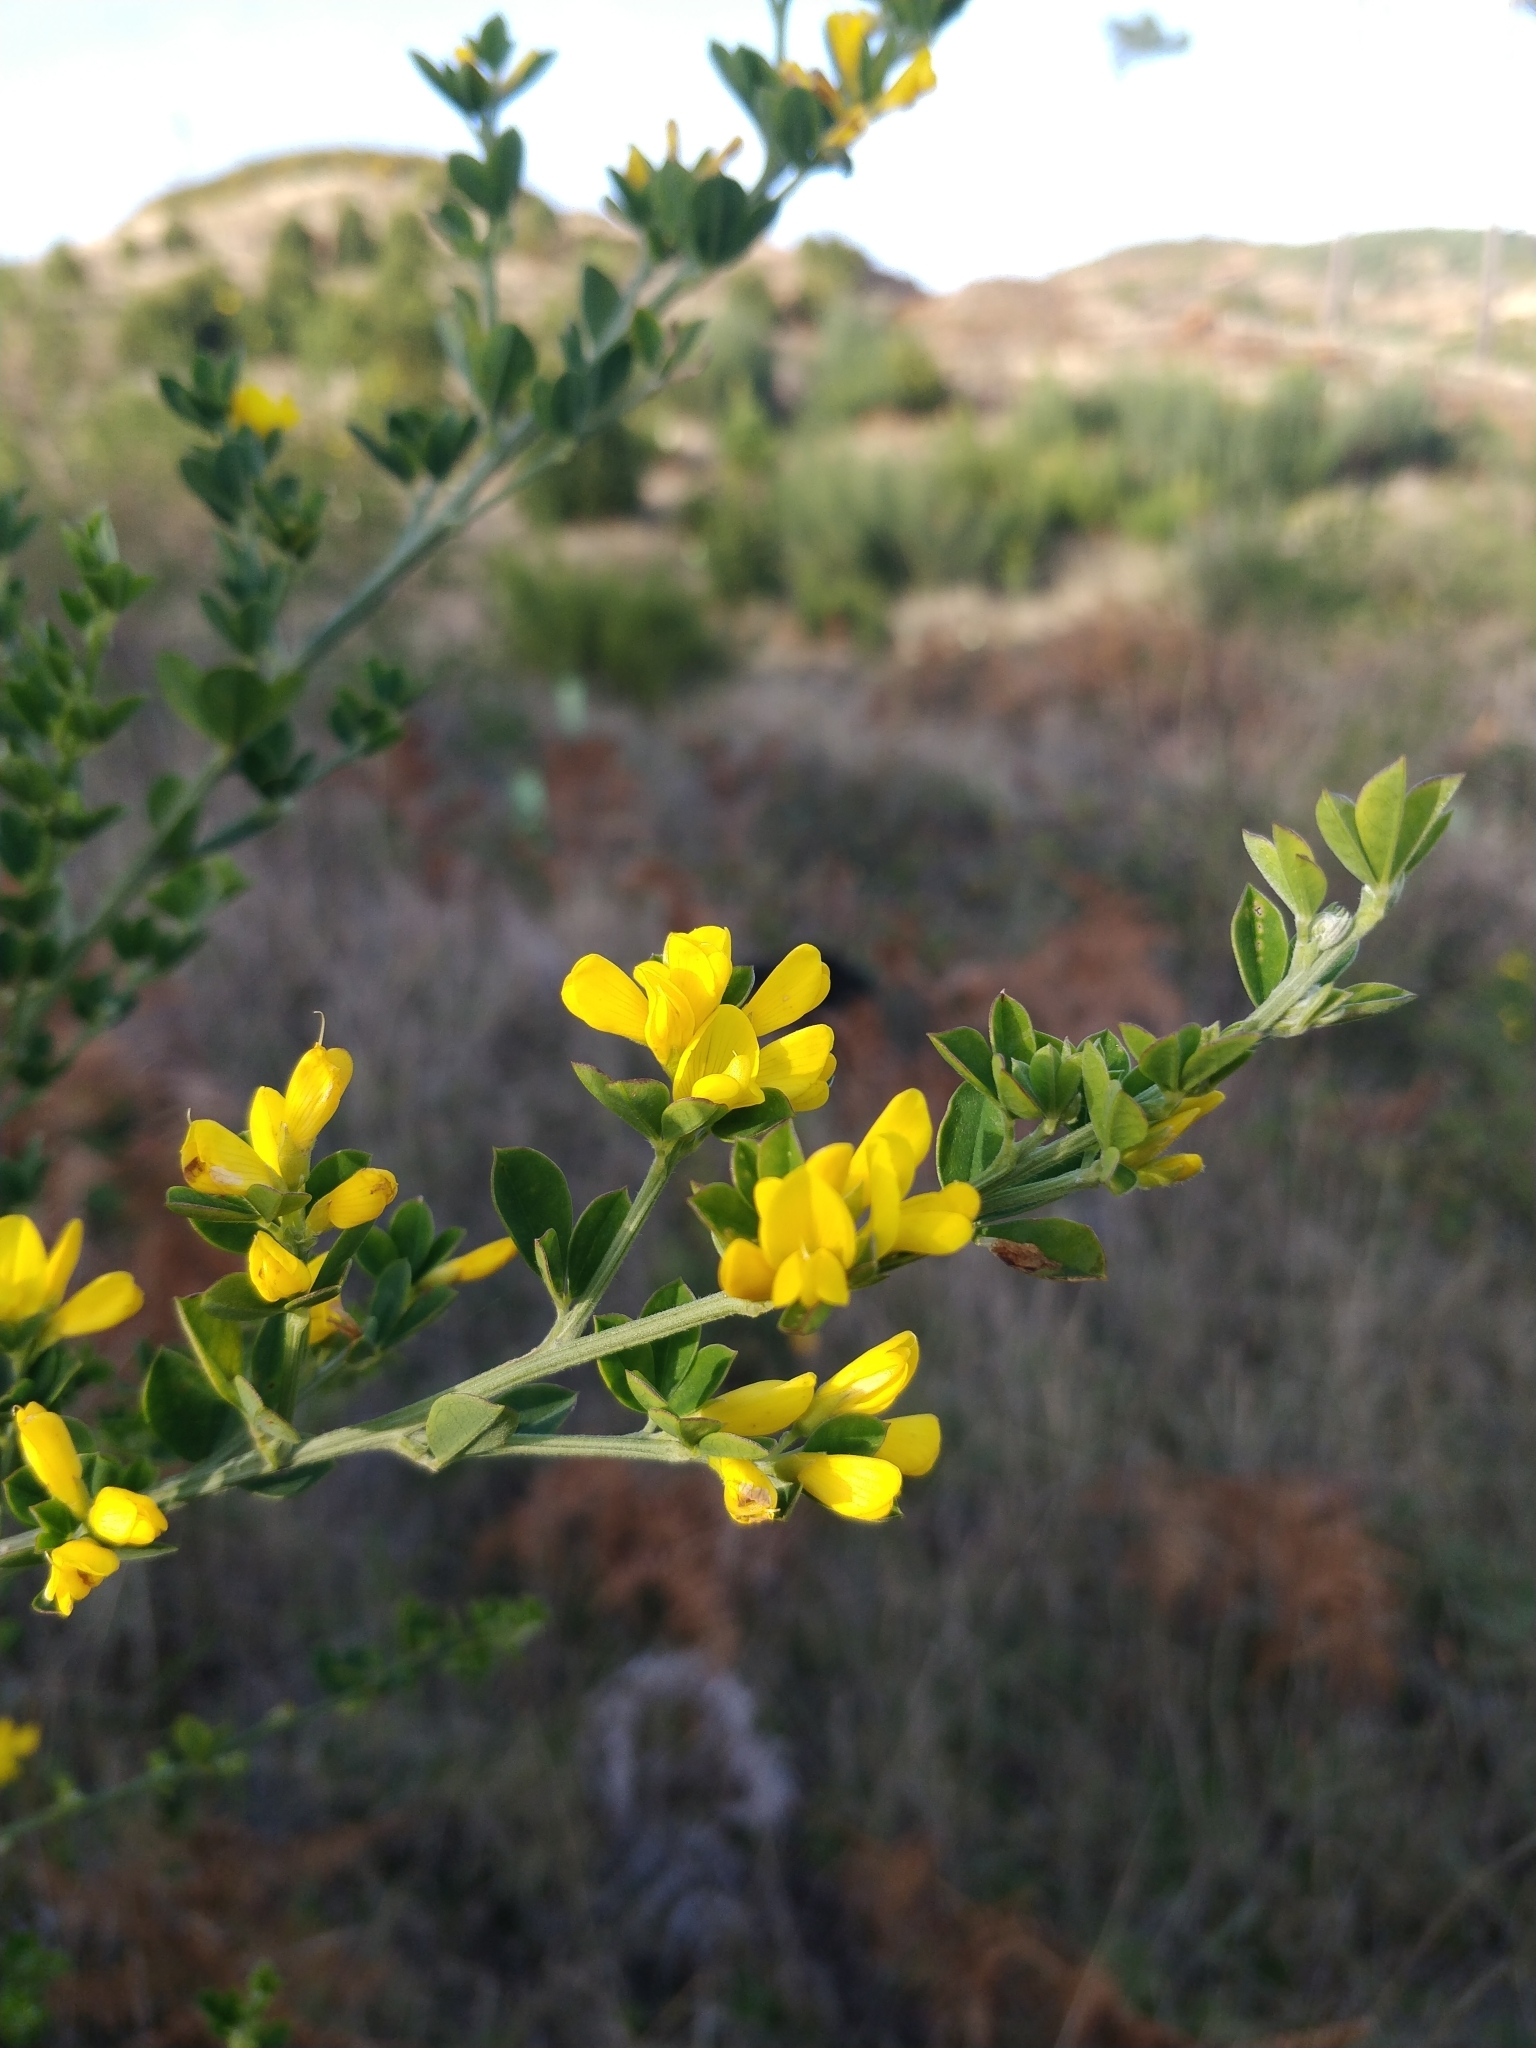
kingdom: Plantae
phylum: Tracheophyta
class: Magnoliopsida
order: Fabales
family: Fabaceae
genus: Genista
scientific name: Genista maderensis
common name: Madeira dyer's greenweed
